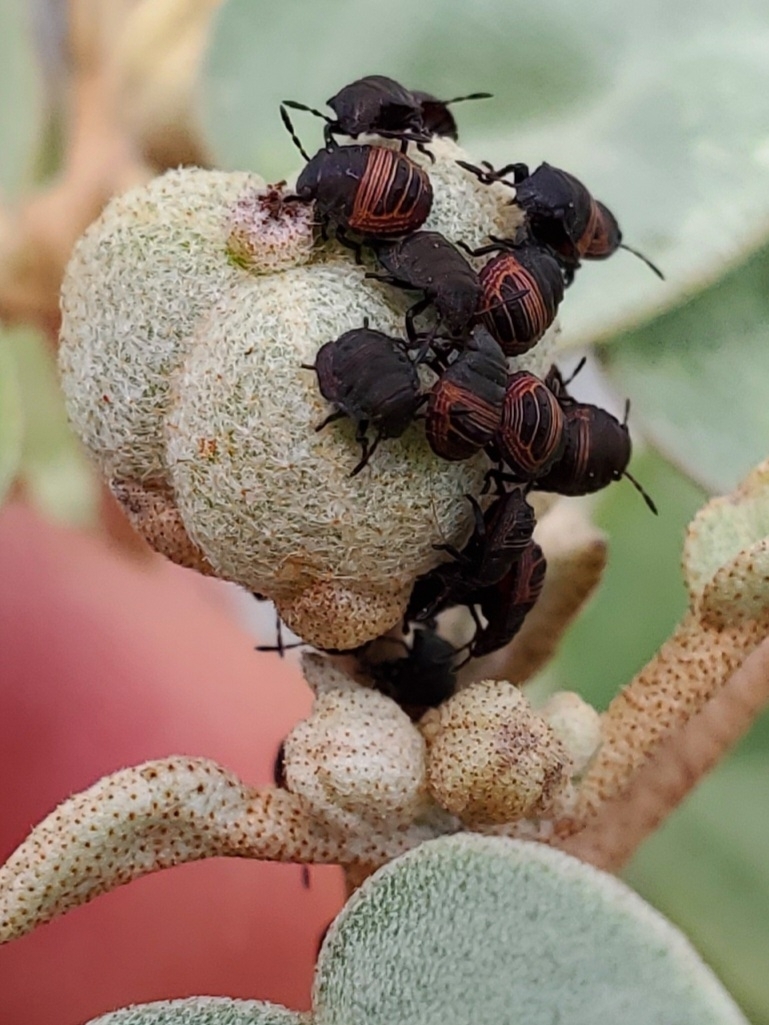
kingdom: Animalia
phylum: Arthropoda
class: Insecta
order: Hemiptera
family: Scutelleridae
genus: Orsilochides
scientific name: Orsilochides guttata
